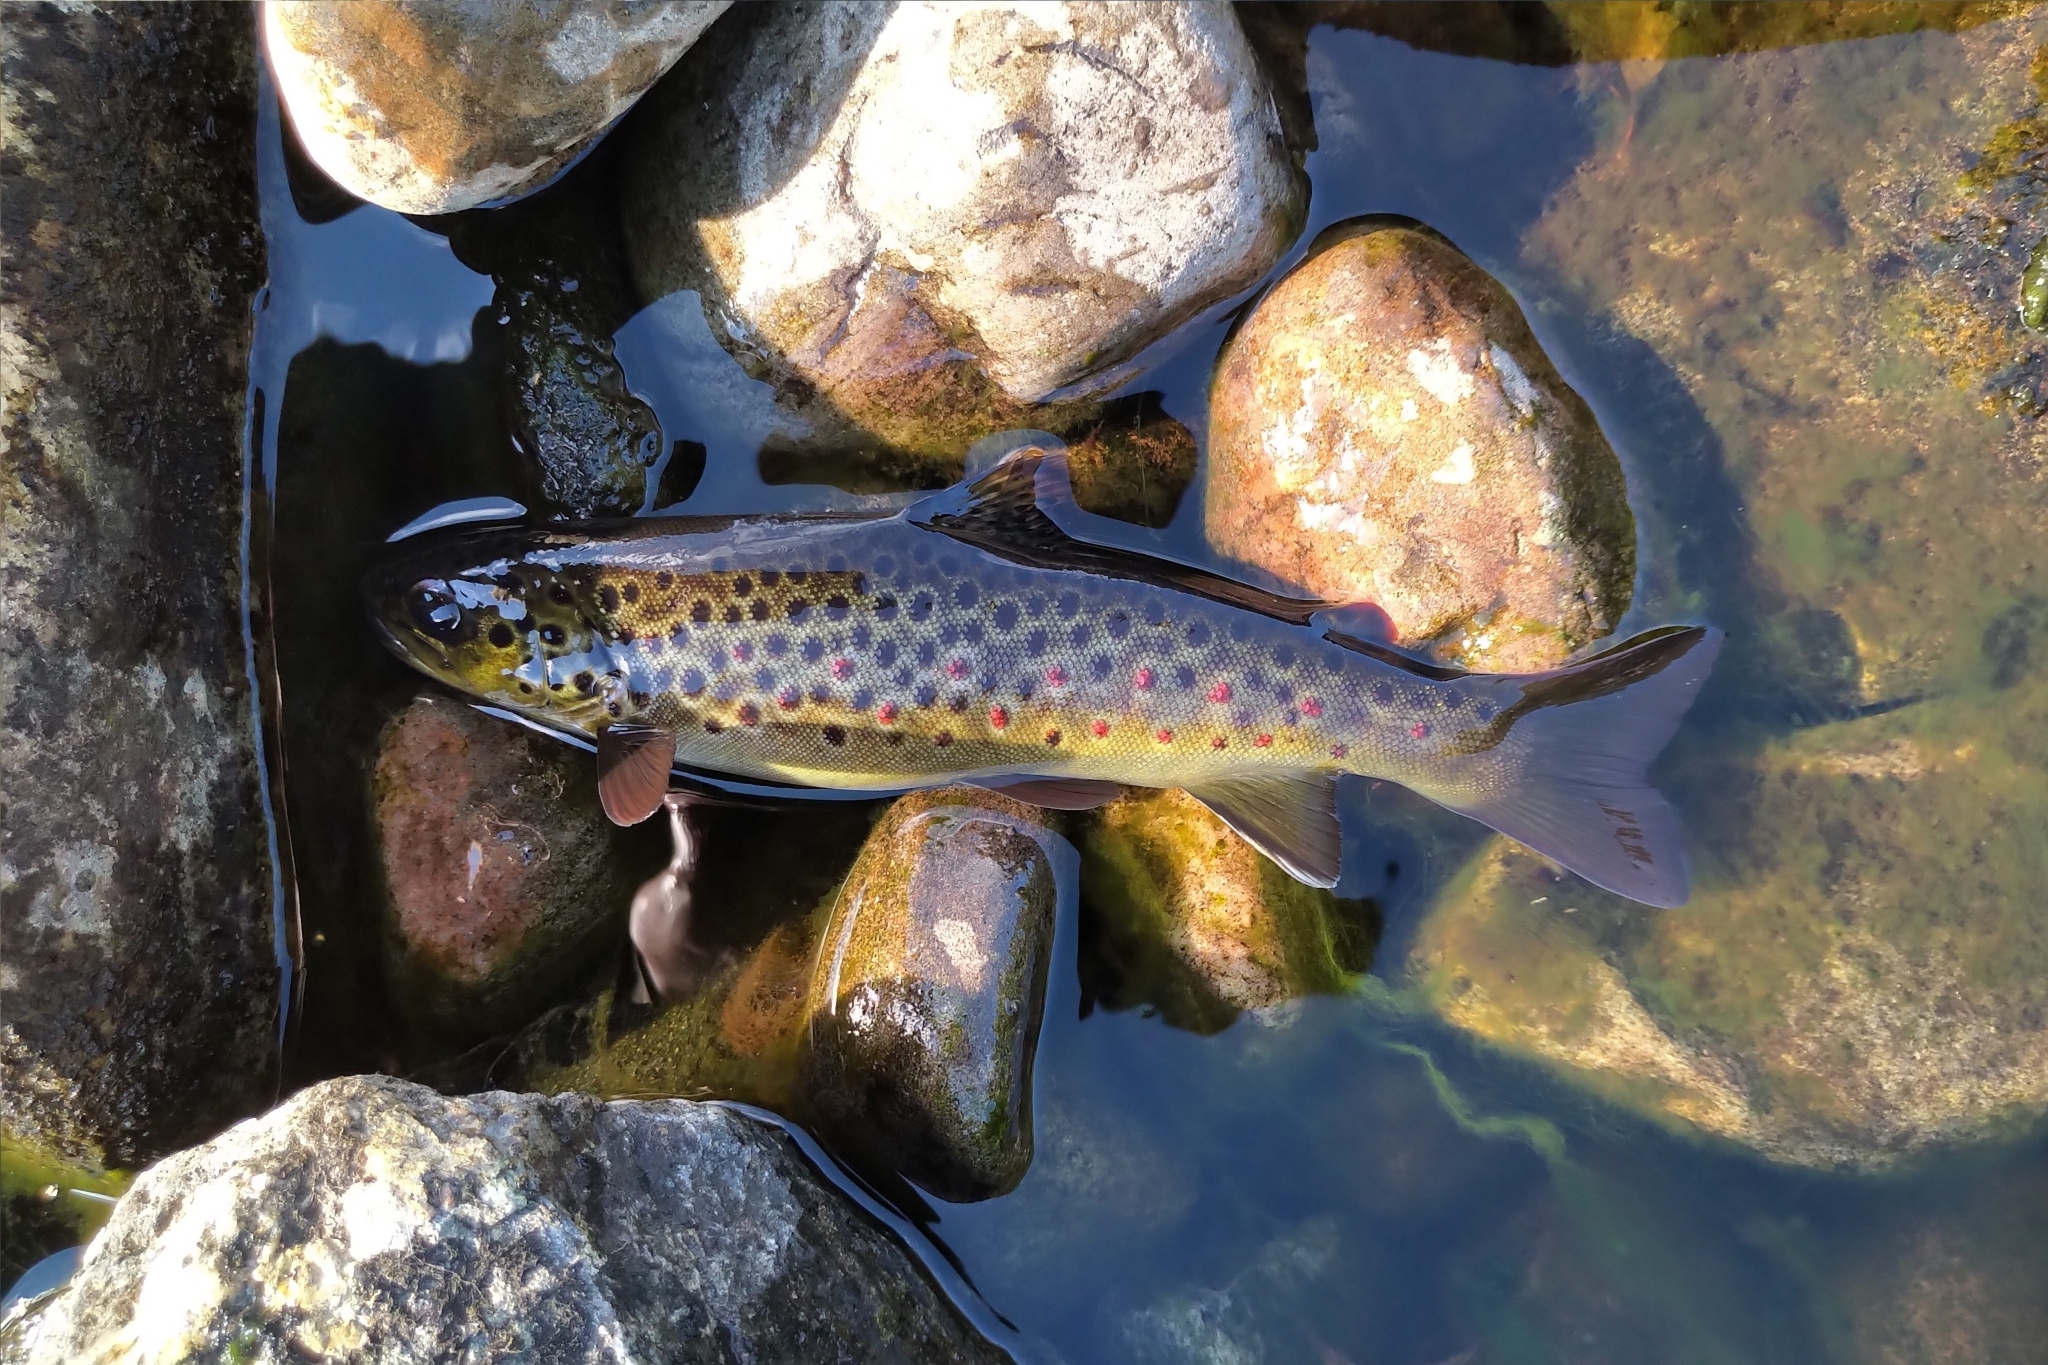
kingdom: Animalia
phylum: Chordata
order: Salmoniformes
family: Salmonidae
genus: Salmo
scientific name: Salmo trutta
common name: Brown trout
